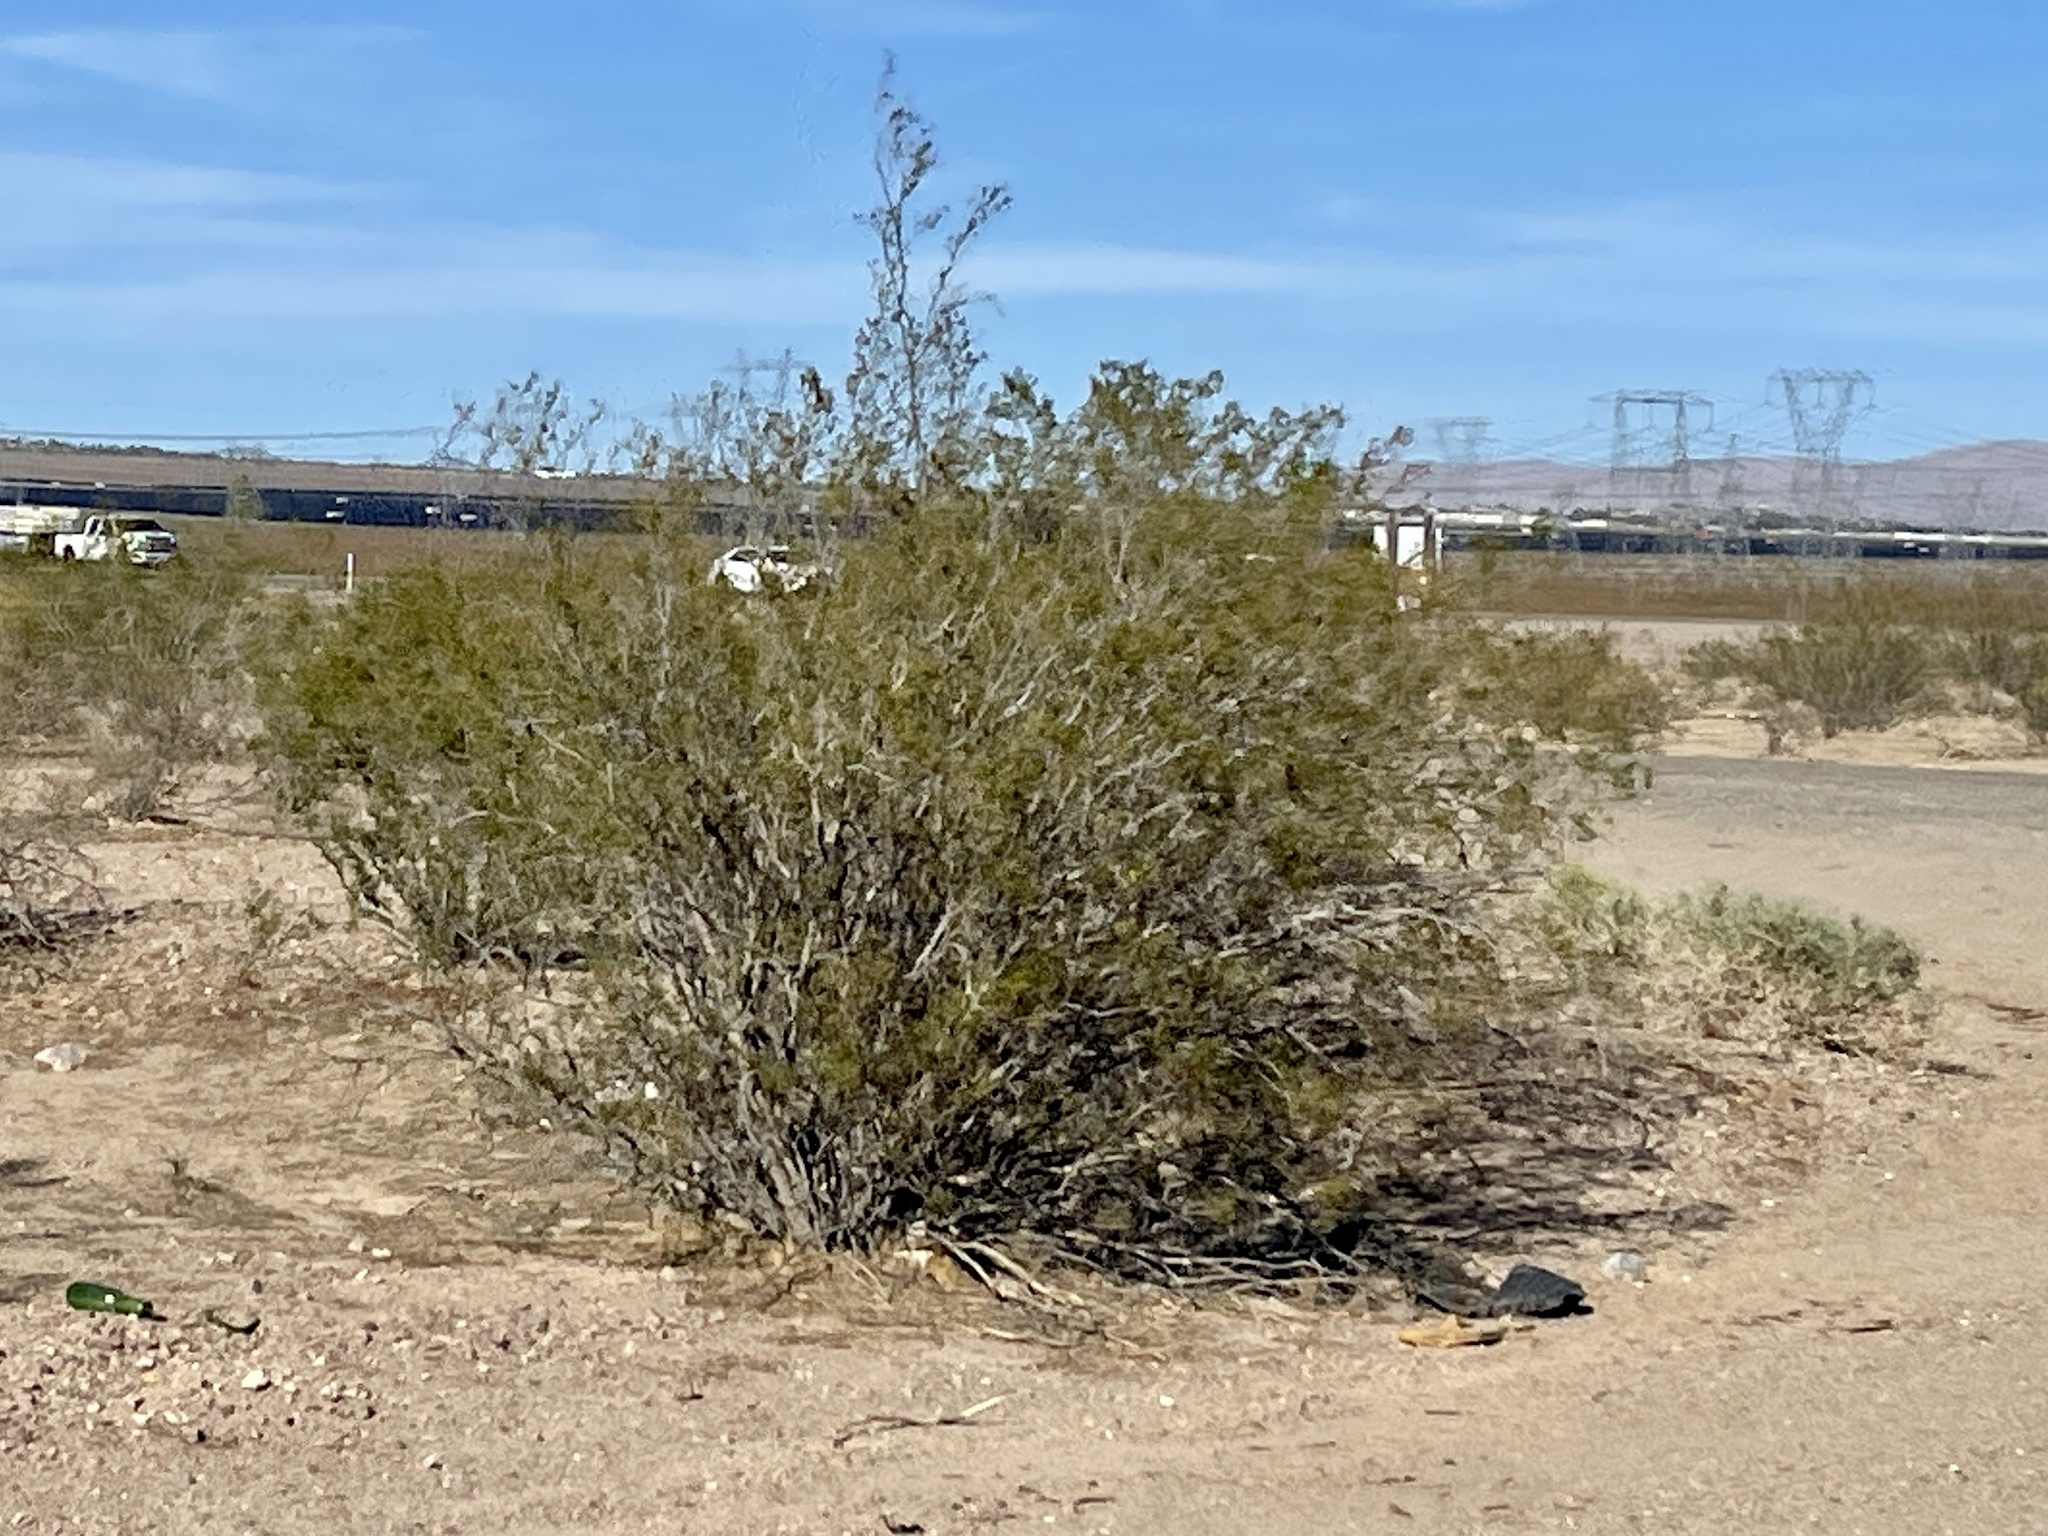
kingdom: Plantae
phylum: Tracheophyta
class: Magnoliopsida
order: Zygophyllales
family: Zygophyllaceae
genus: Larrea
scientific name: Larrea tridentata
